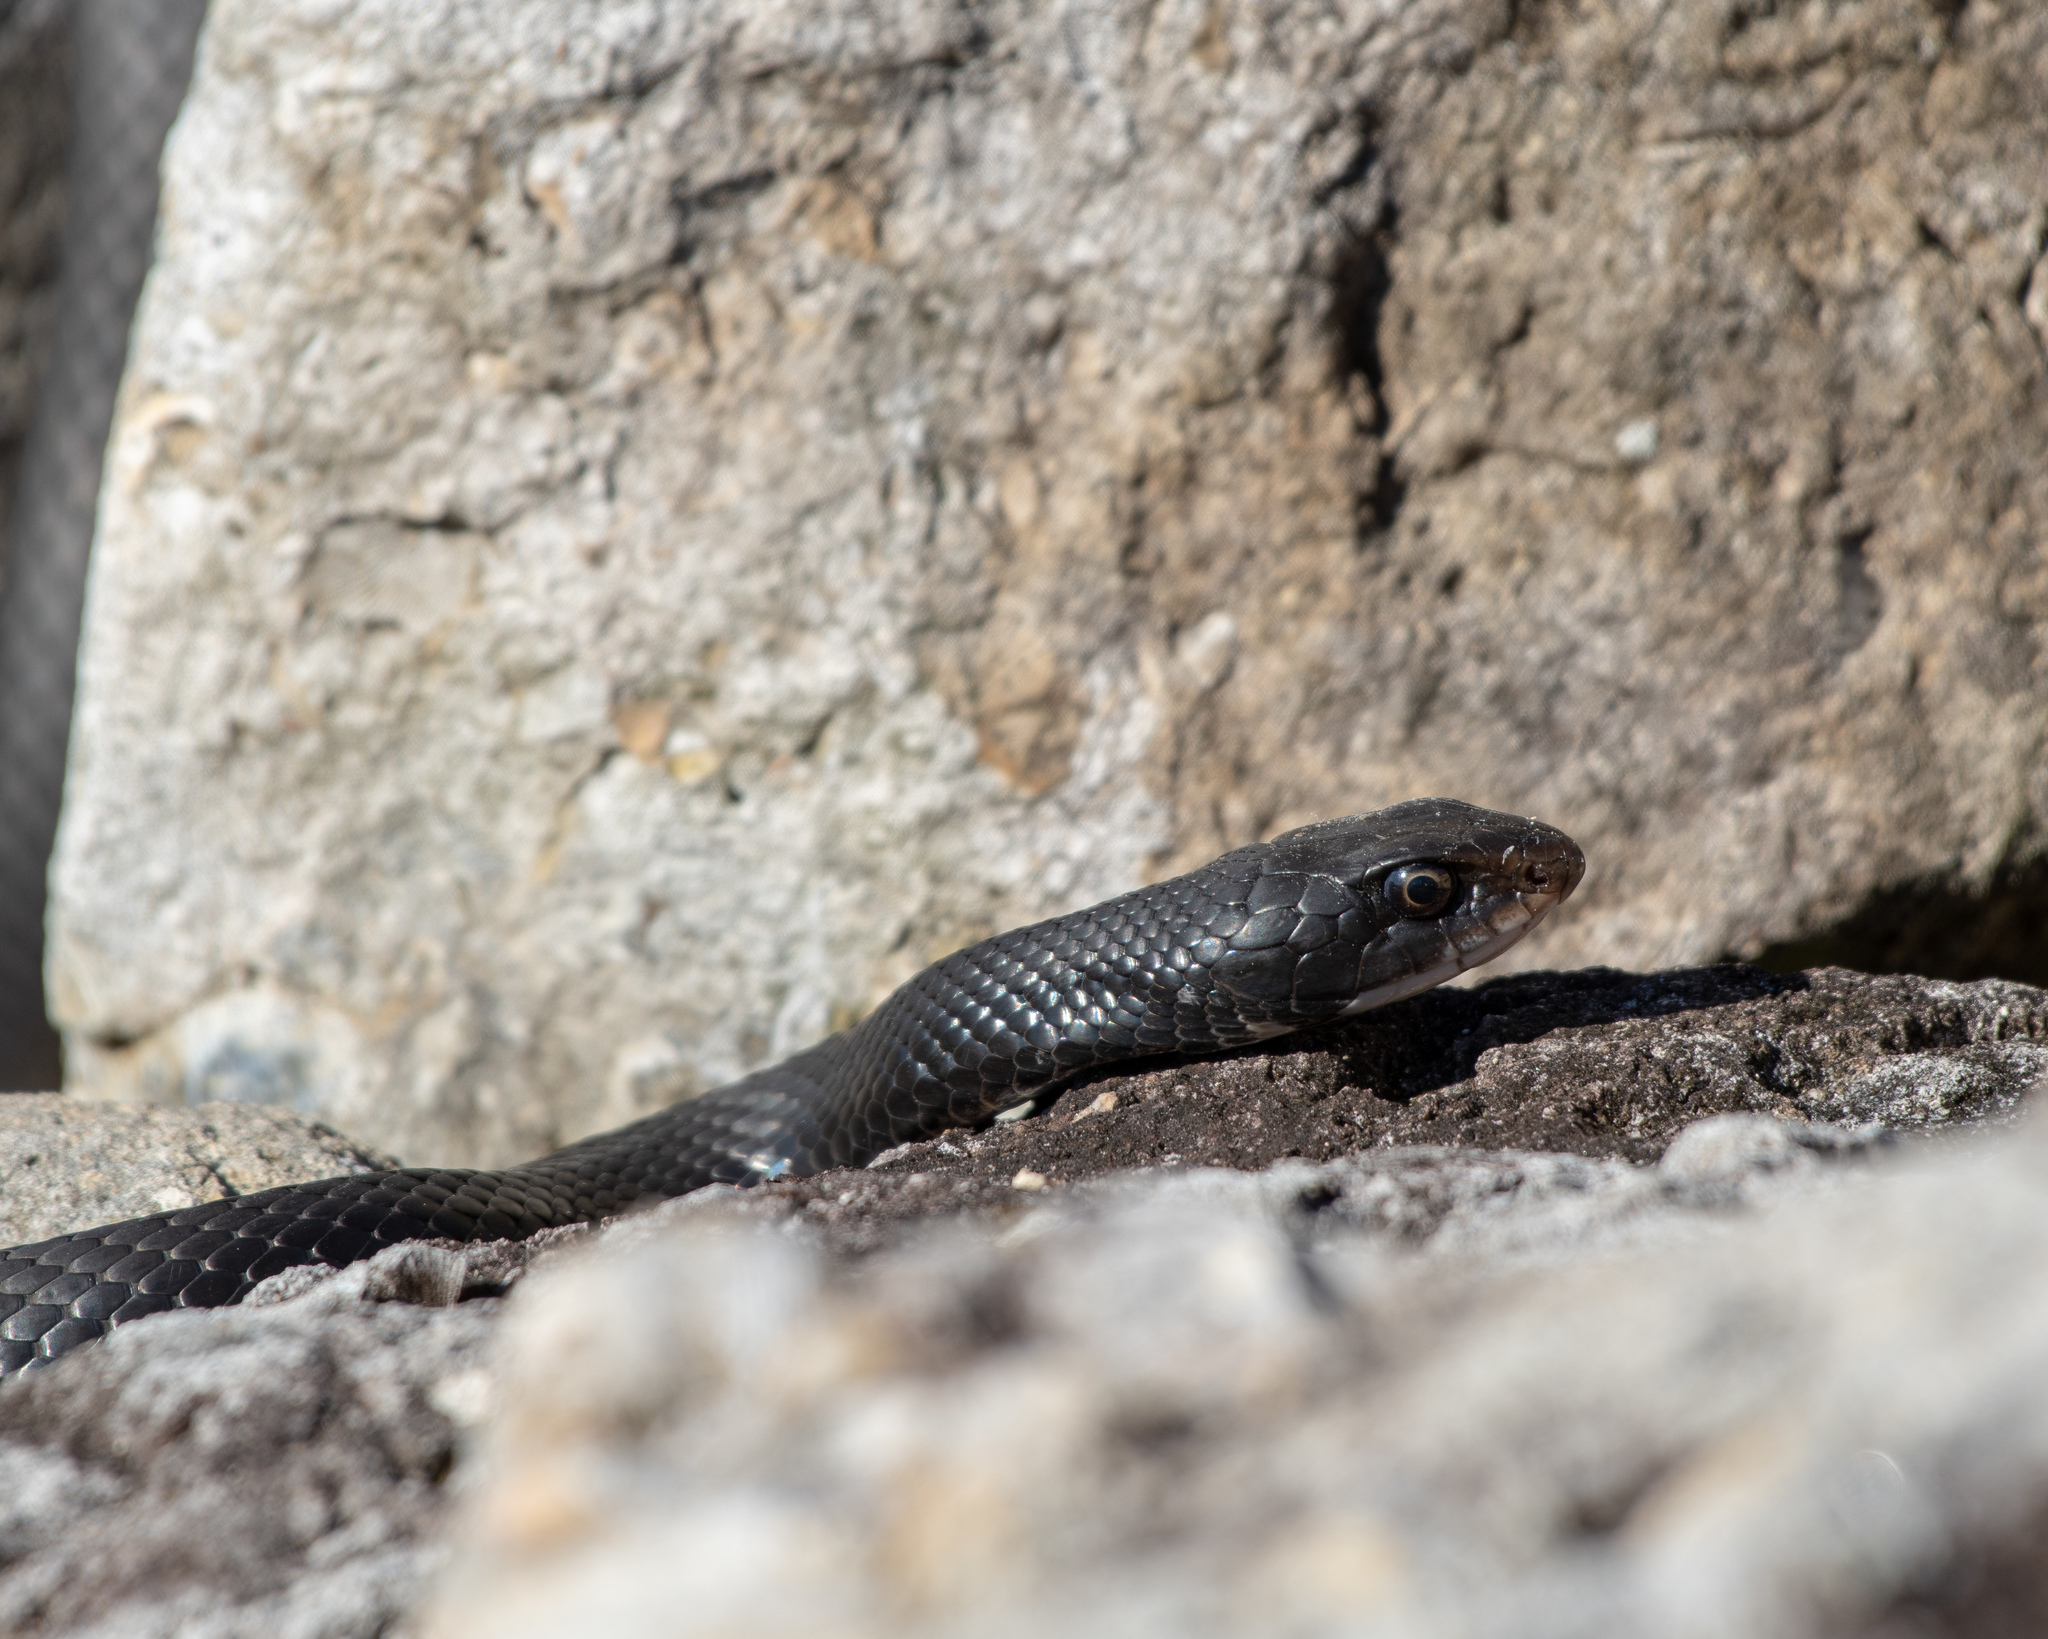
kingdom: Animalia
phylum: Chordata
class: Squamata
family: Colubridae
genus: Coluber
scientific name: Coluber constrictor
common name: Eastern racer
